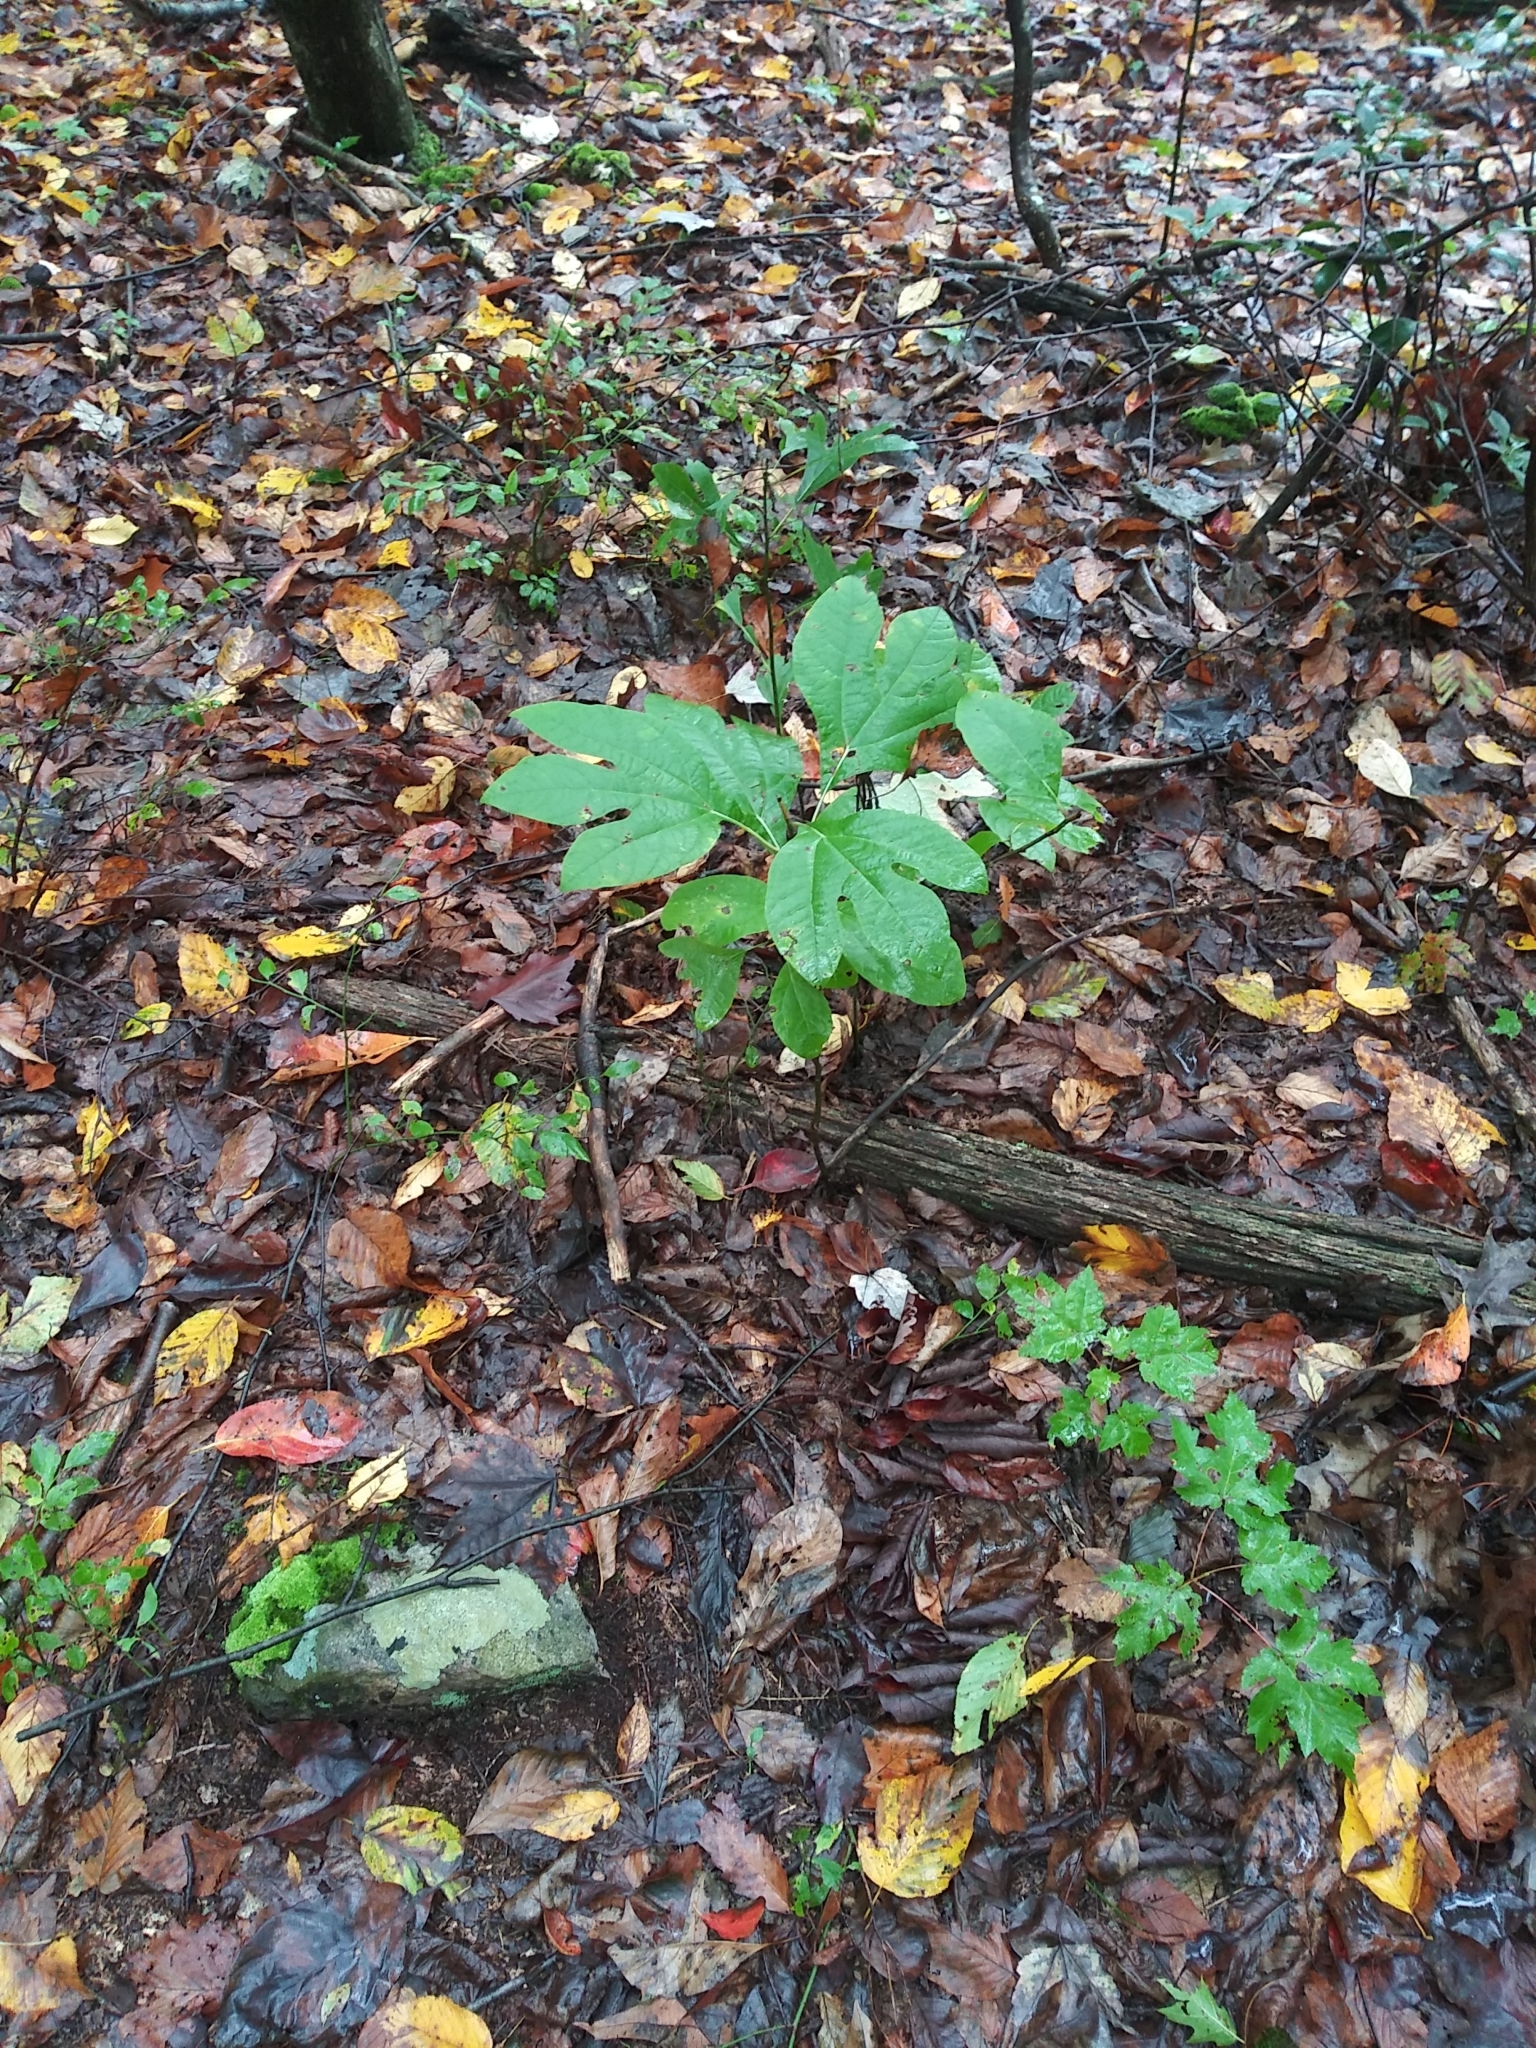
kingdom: Plantae
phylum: Tracheophyta
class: Magnoliopsida
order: Laurales
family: Lauraceae
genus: Sassafras
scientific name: Sassafras albidum
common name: Sassafras
